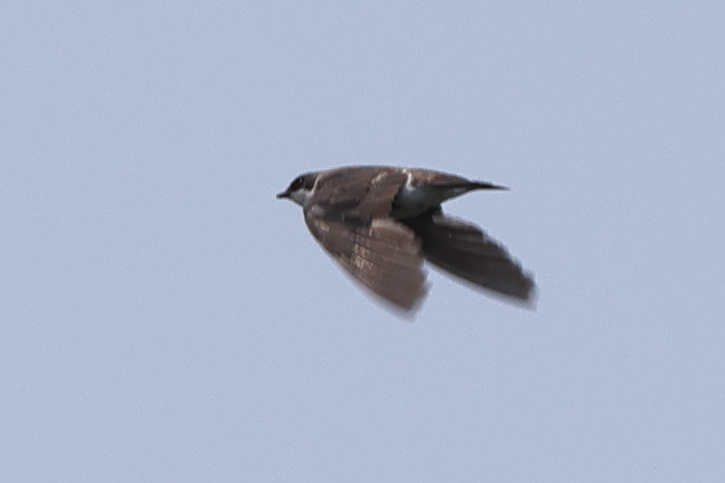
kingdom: Animalia
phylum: Chordata
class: Aves
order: Passeriformes
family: Hirundinidae
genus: Tachycineta
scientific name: Tachycineta bicolor
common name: Tree swallow
